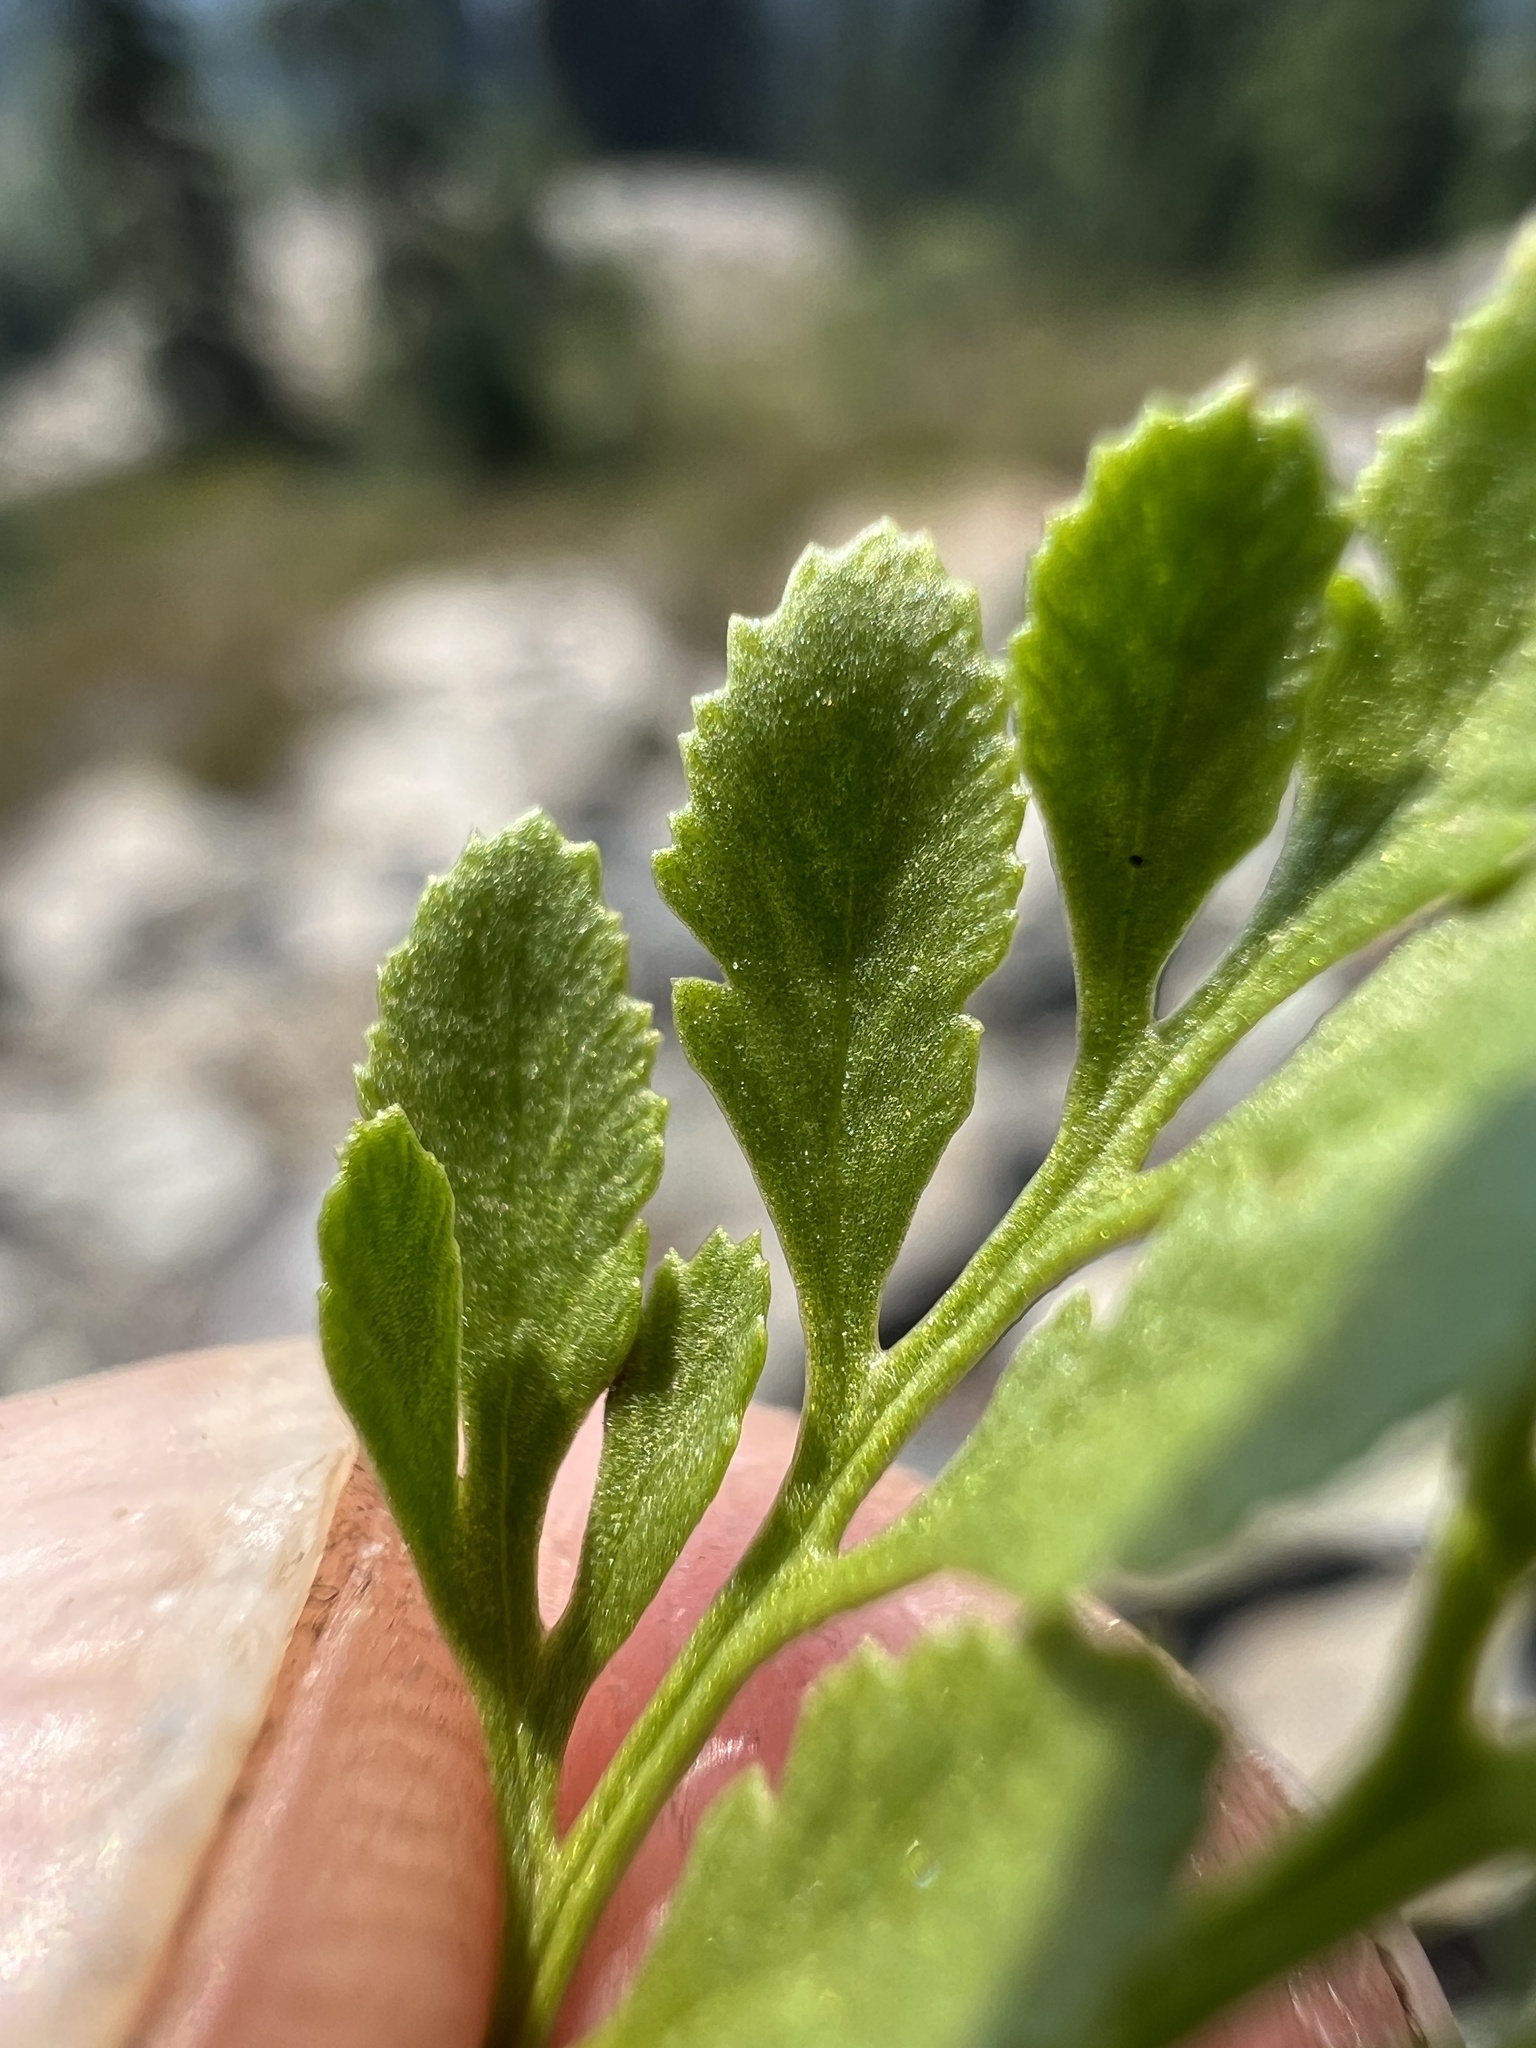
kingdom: Plantae
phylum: Tracheophyta
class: Polypodiopsida
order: Polypodiales
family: Pteridaceae
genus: Cryptogramma
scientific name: Cryptogramma cascadensis
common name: Cascade parsley fern
